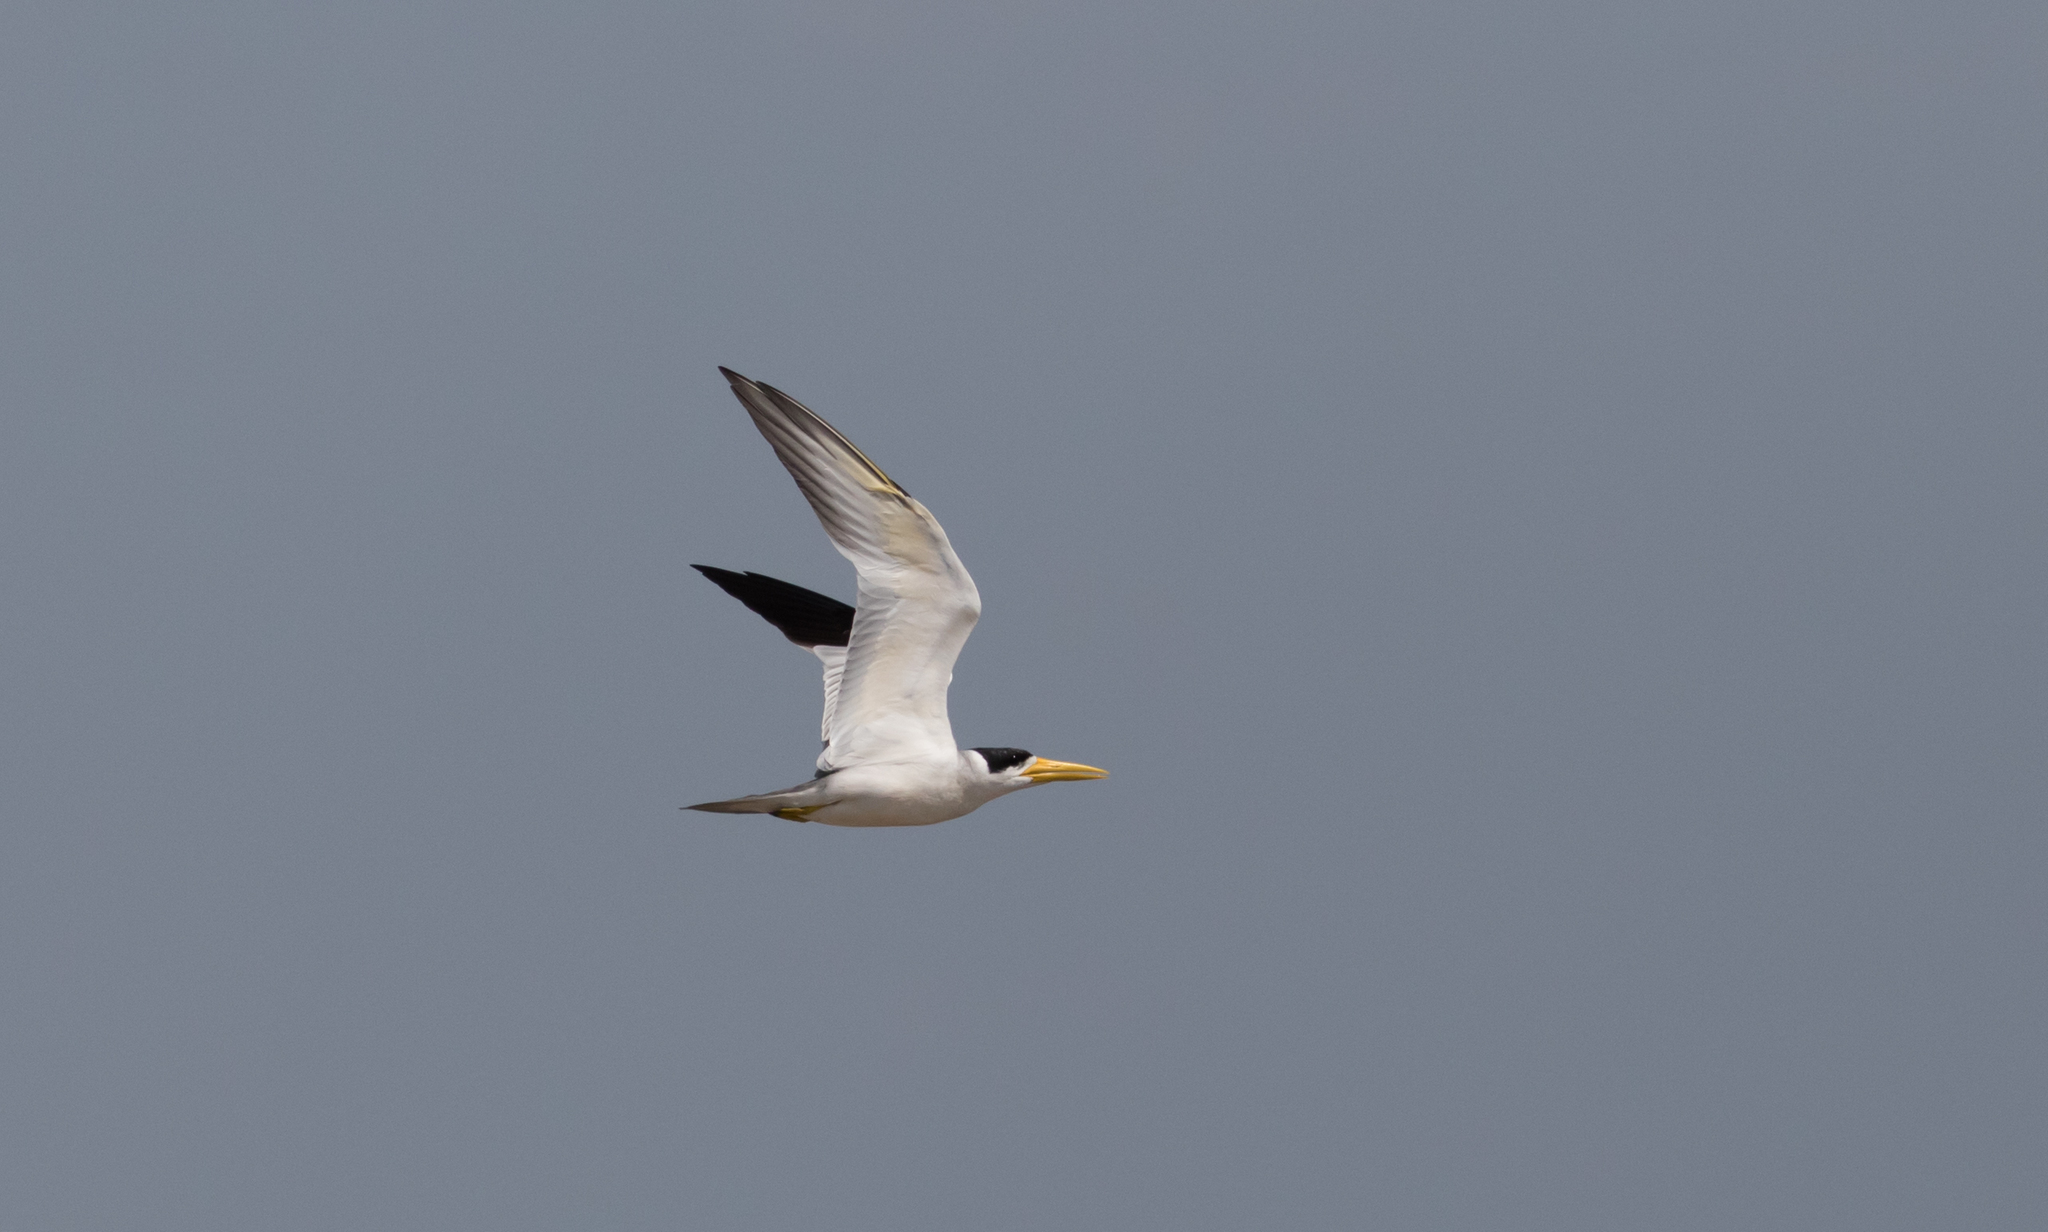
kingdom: Animalia
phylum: Chordata
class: Aves
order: Charadriiformes
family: Laridae
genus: Phaetusa
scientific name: Phaetusa simplex
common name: Large-billed tern
